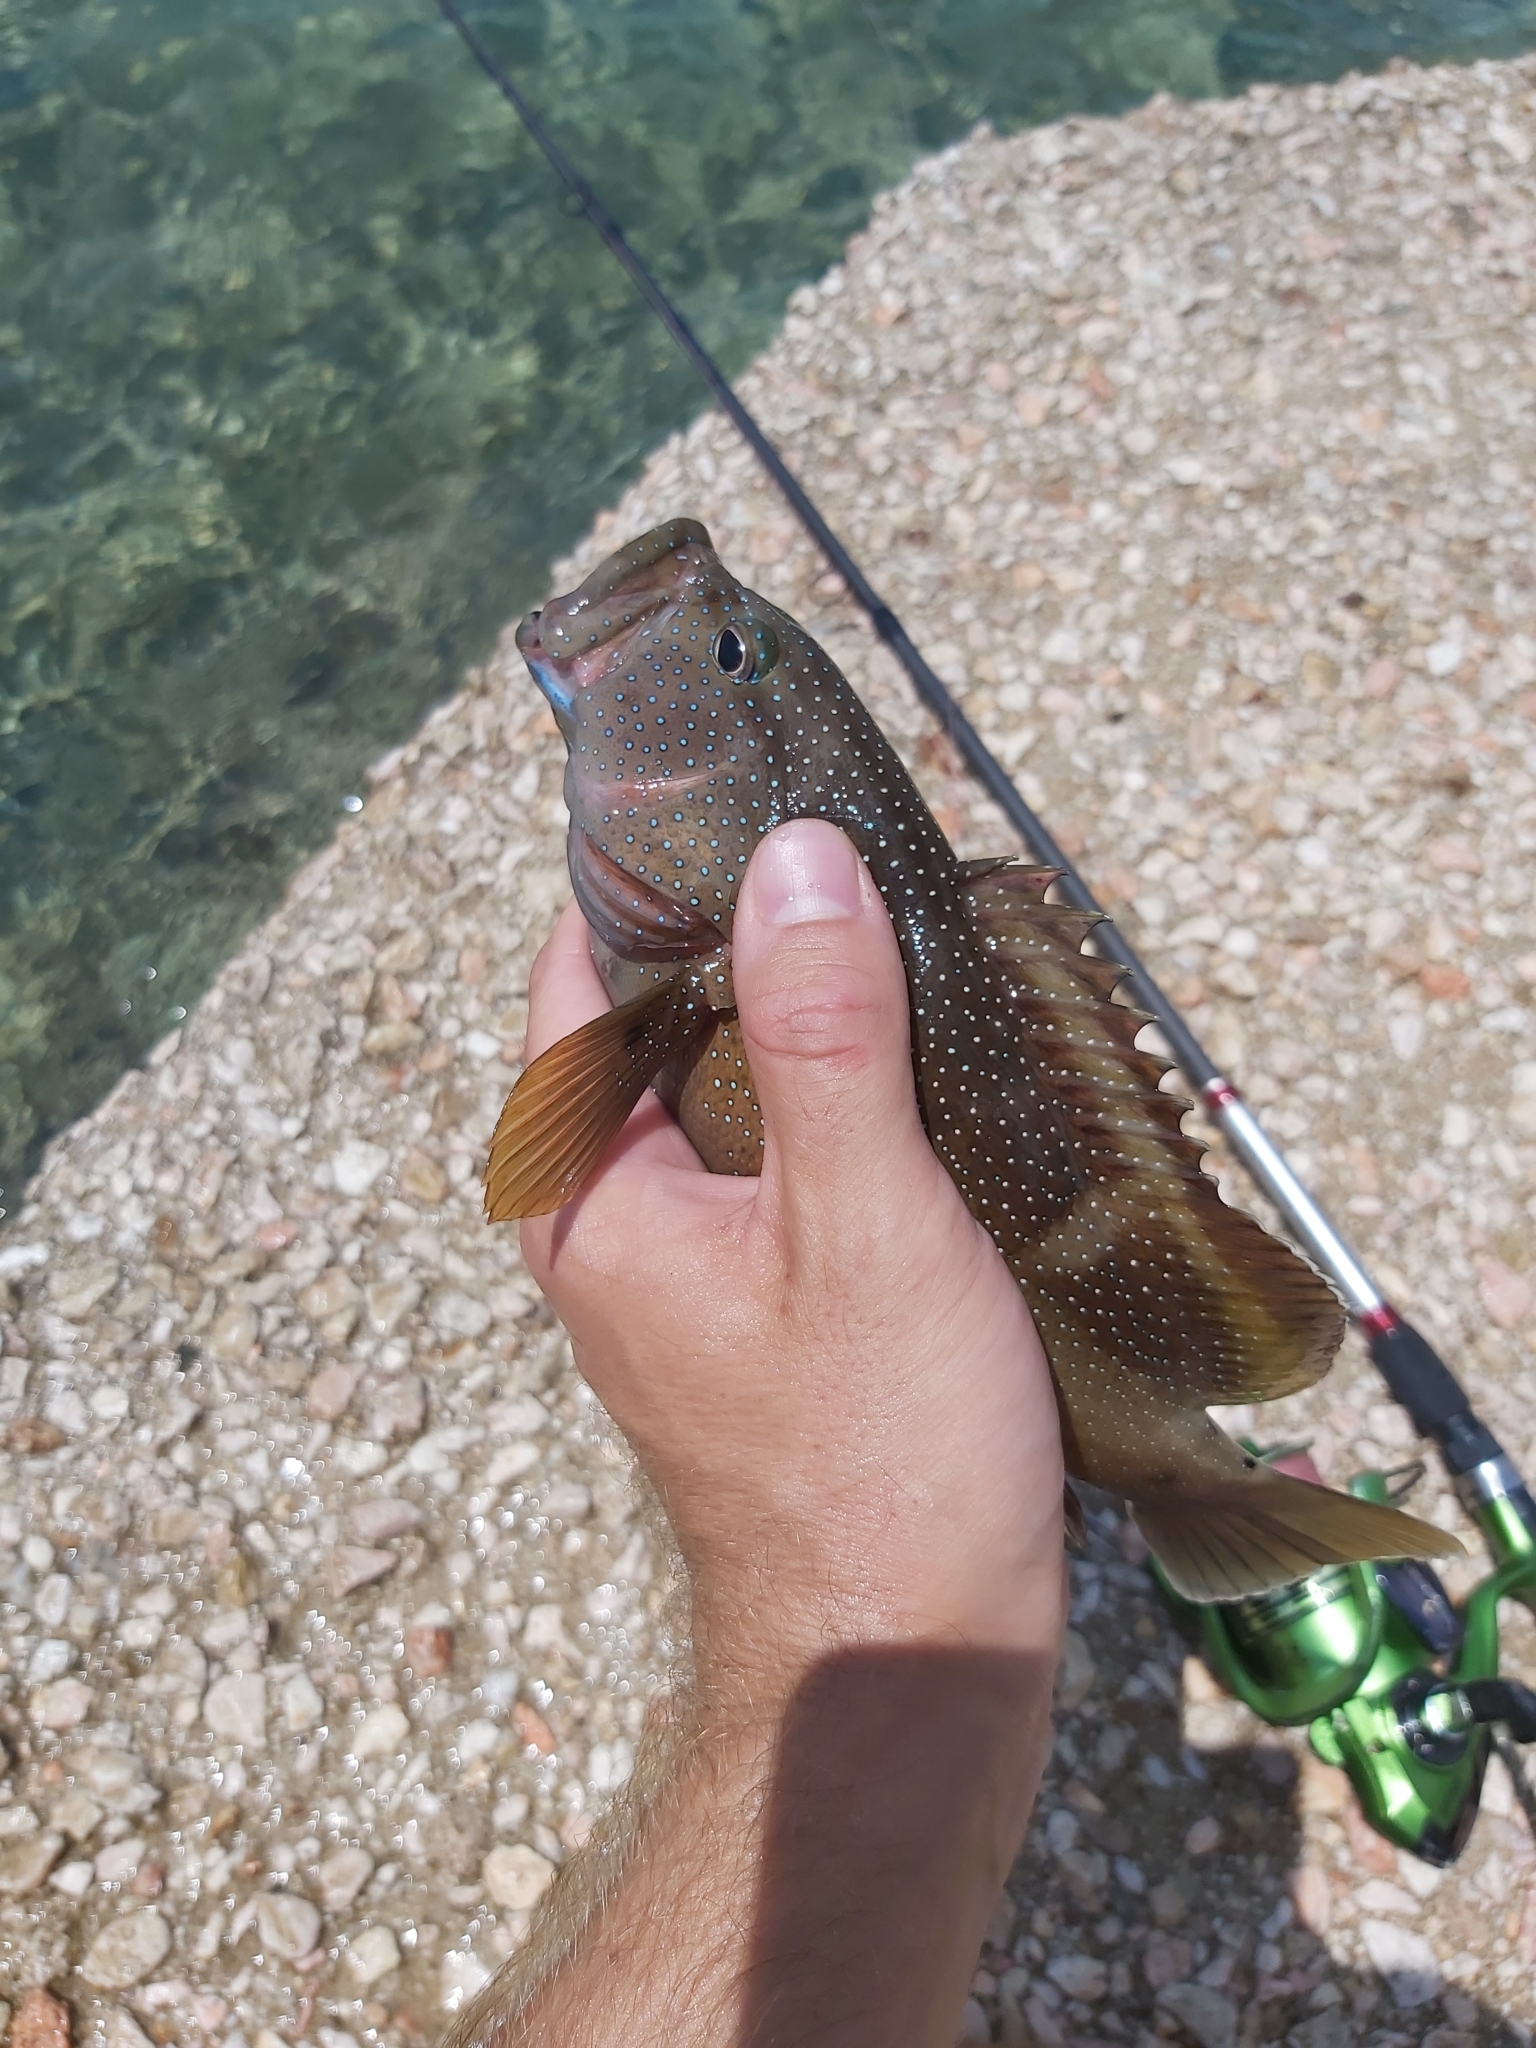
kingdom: Animalia
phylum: Chordata
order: Perciformes
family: Serranidae
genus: Cephalopholis
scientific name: Cephalopholis fulva
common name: Butterfish
